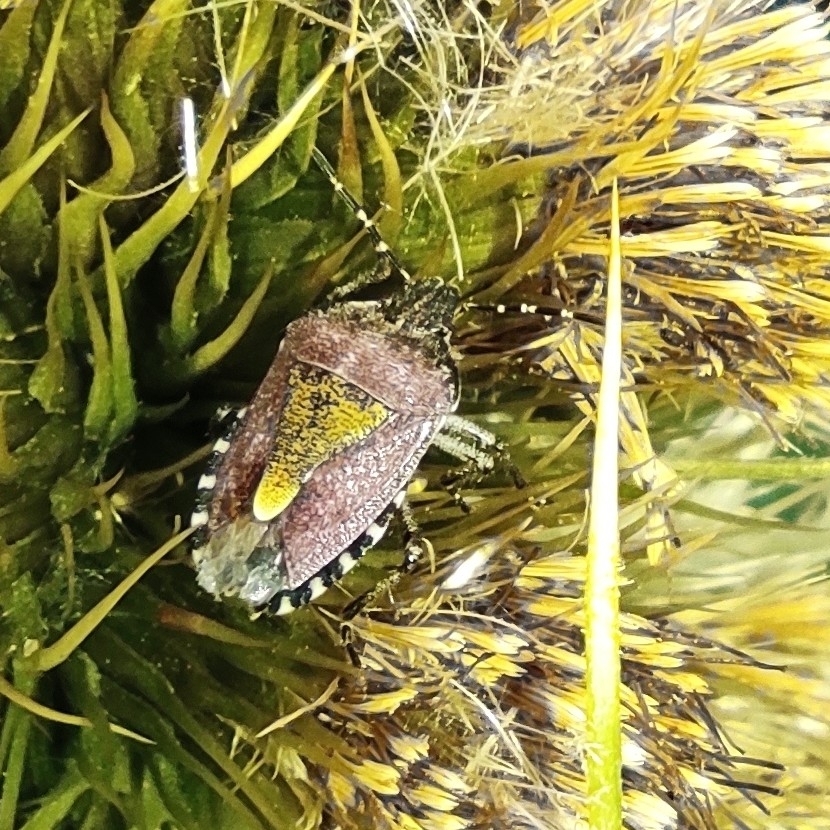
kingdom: Animalia
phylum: Arthropoda
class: Insecta
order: Hemiptera
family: Pentatomidae
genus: Dolycoris
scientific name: Dolycoris baccarum
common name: Sloe bug
